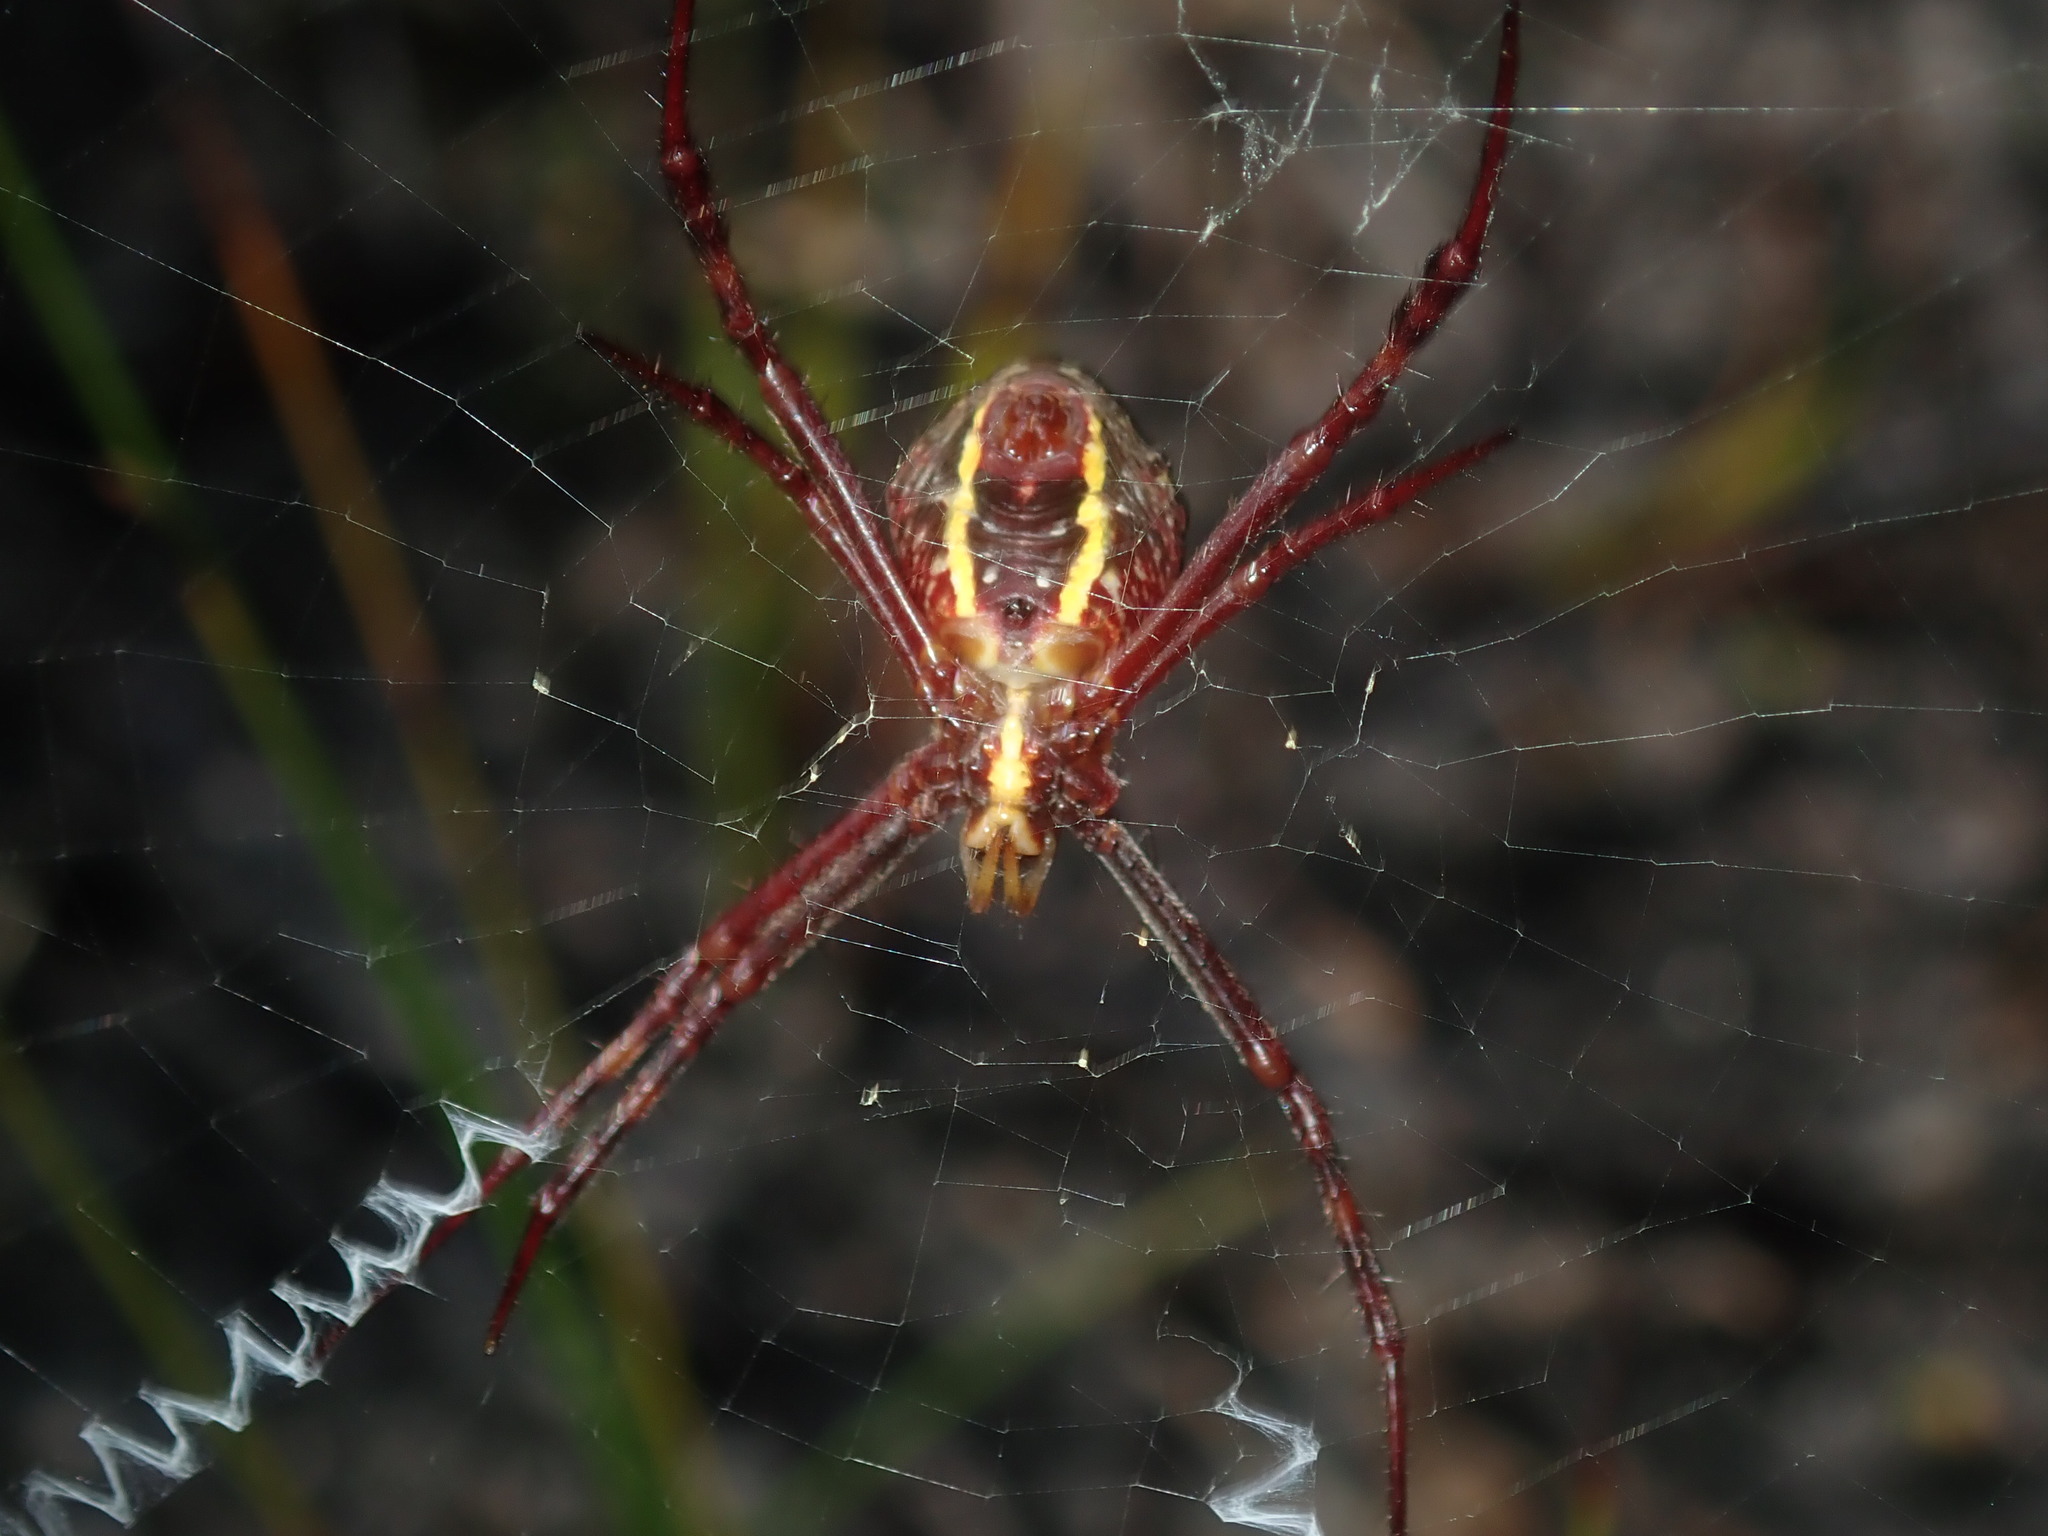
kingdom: Animalia
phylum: Arthropoda
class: Arachnida
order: Araneae
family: Araneidae
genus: Argiope
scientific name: Argiope keyserlingi
